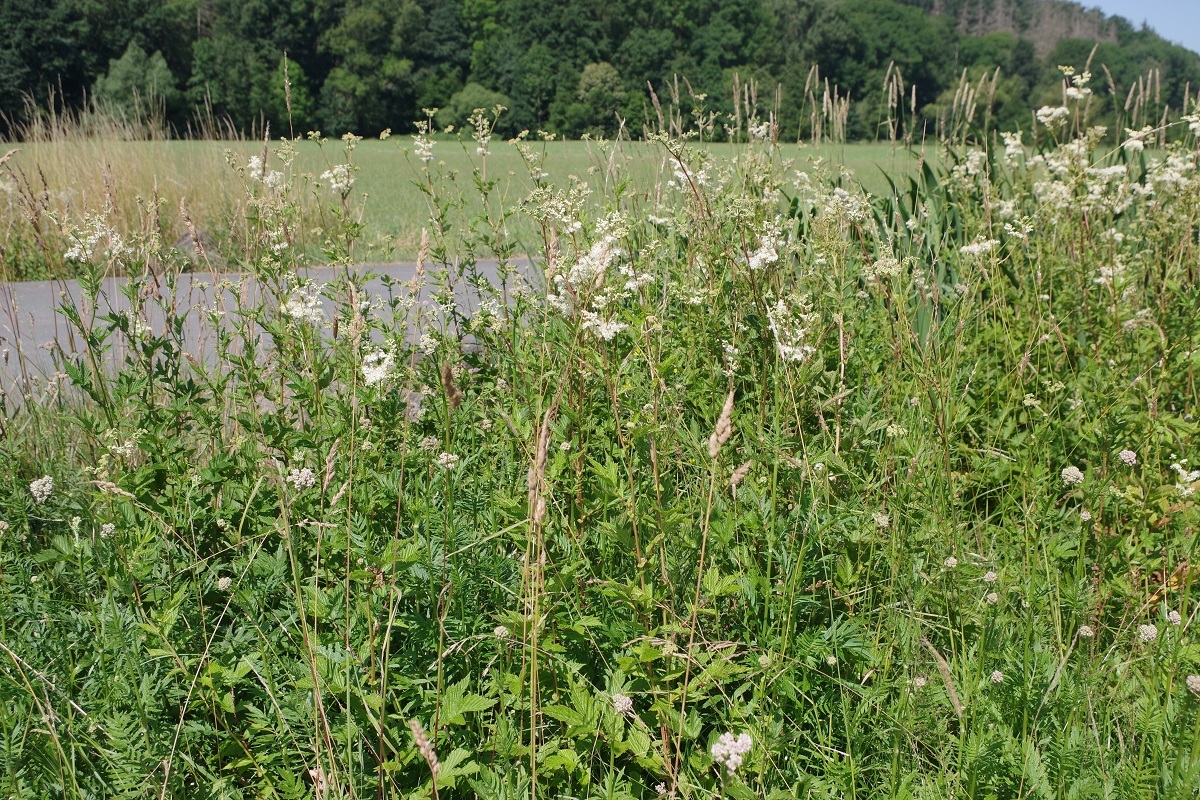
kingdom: Plantae
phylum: Tracheophyta
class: Magnoliopsida
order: Rosales
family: Rosaceae
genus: Filipendula
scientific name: Filipendula ulmaria
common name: Meadowsweet
